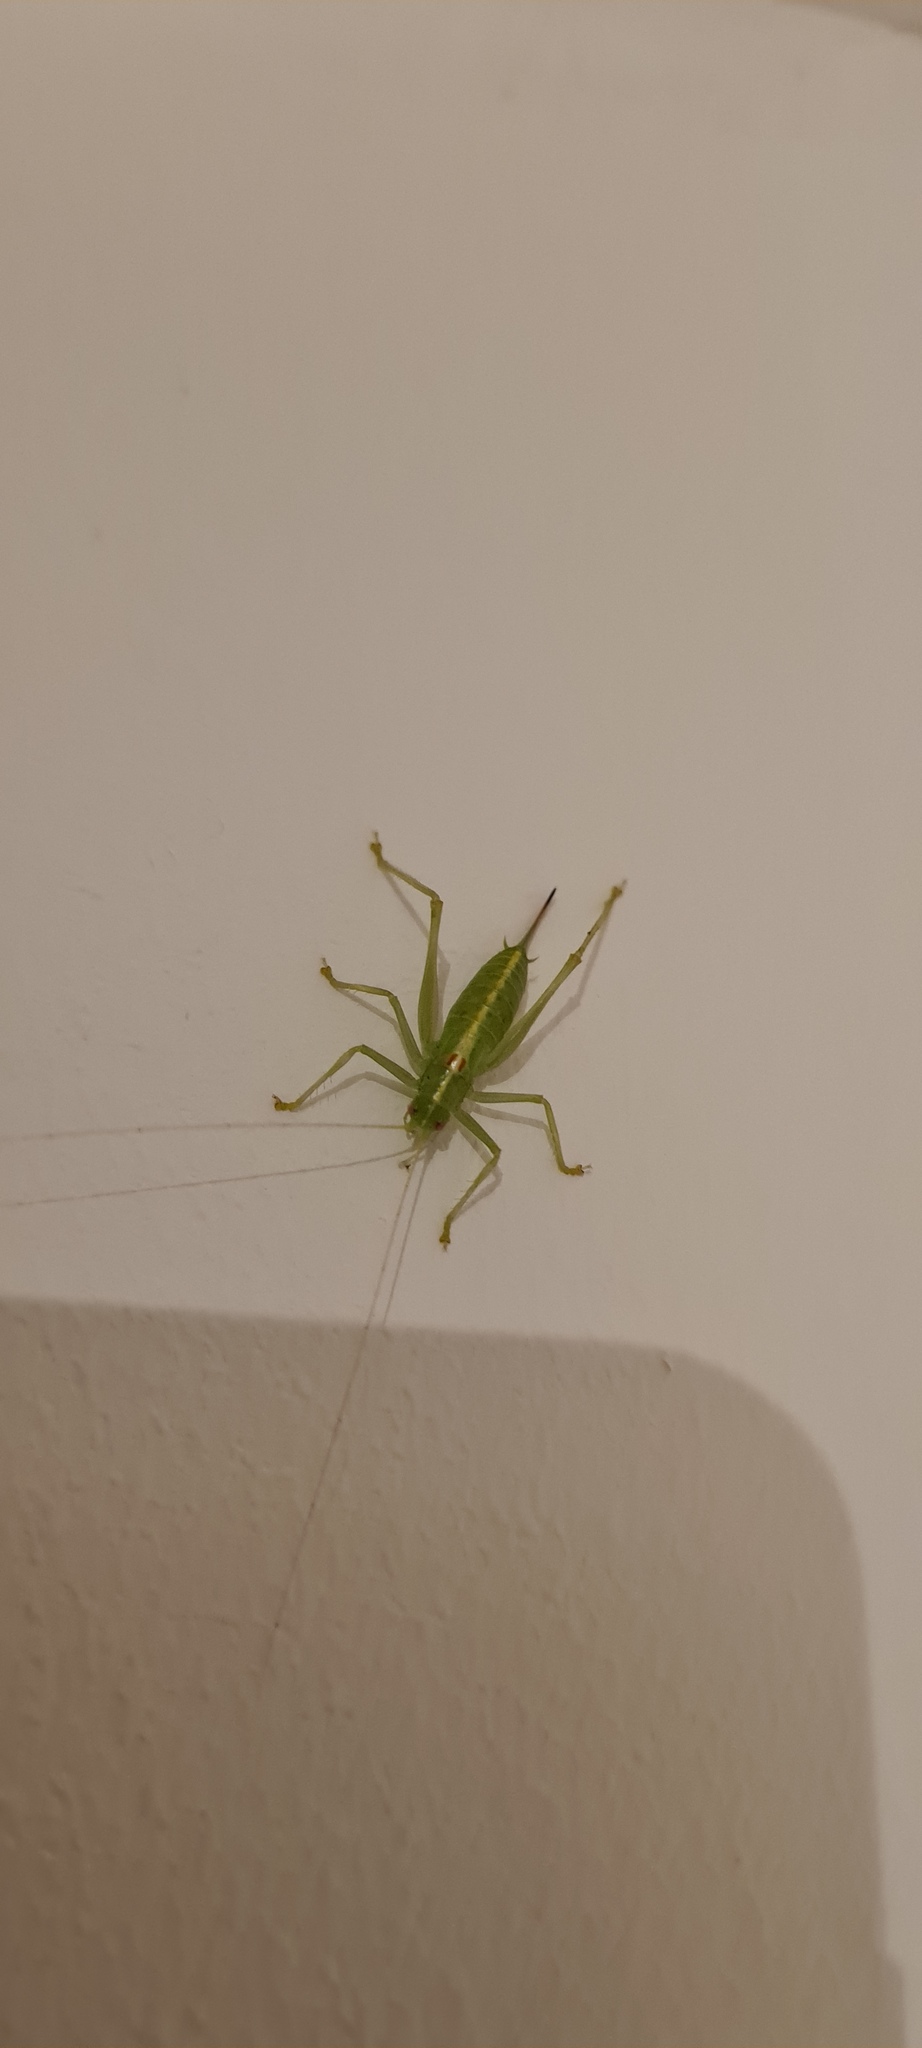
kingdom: Animalia
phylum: Arthropoda
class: Insecta
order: Orthoptera
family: Tettigoniidae
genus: Meconema
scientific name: Meconema meridionale
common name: Southern oak bush-cricket
